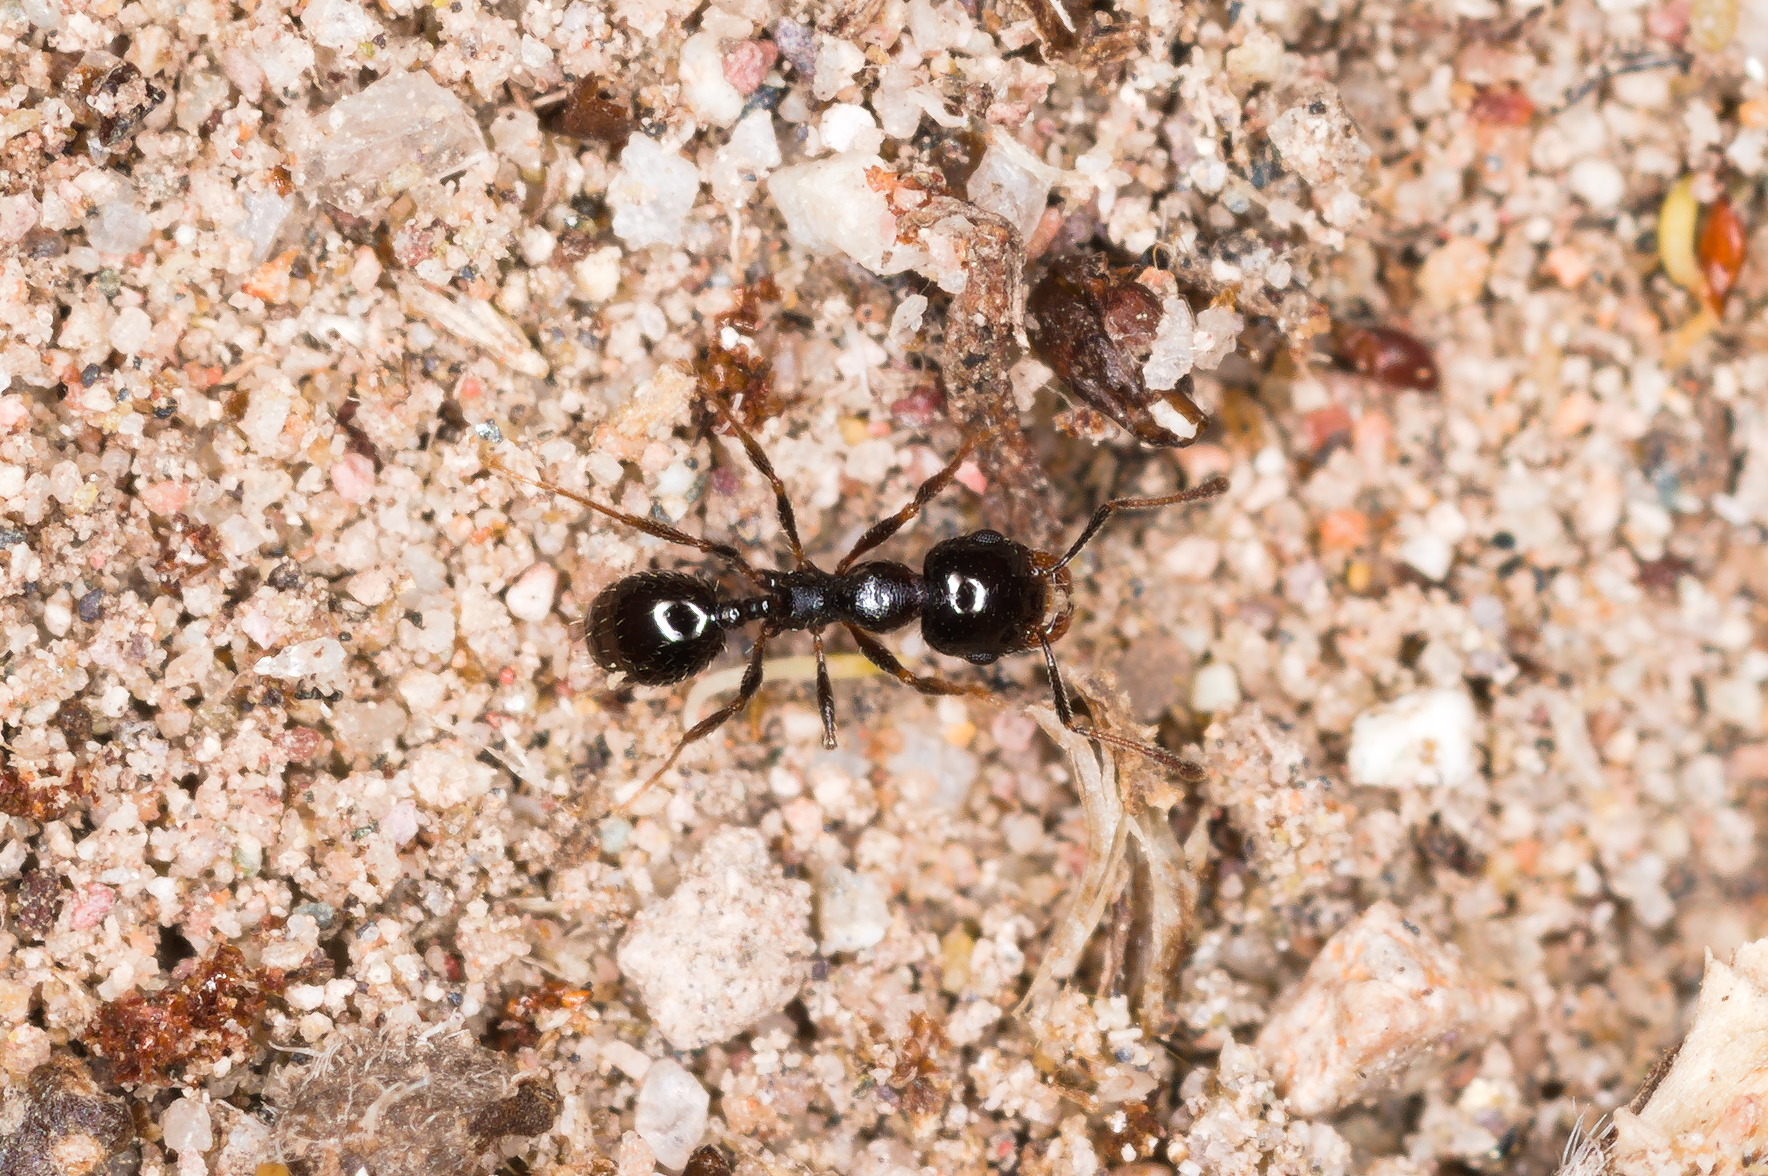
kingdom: Animalia
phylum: Arthropoda
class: Insecta
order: Hymenoptera
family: Formicidae
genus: Pheidole
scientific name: Pheidole xerophila
